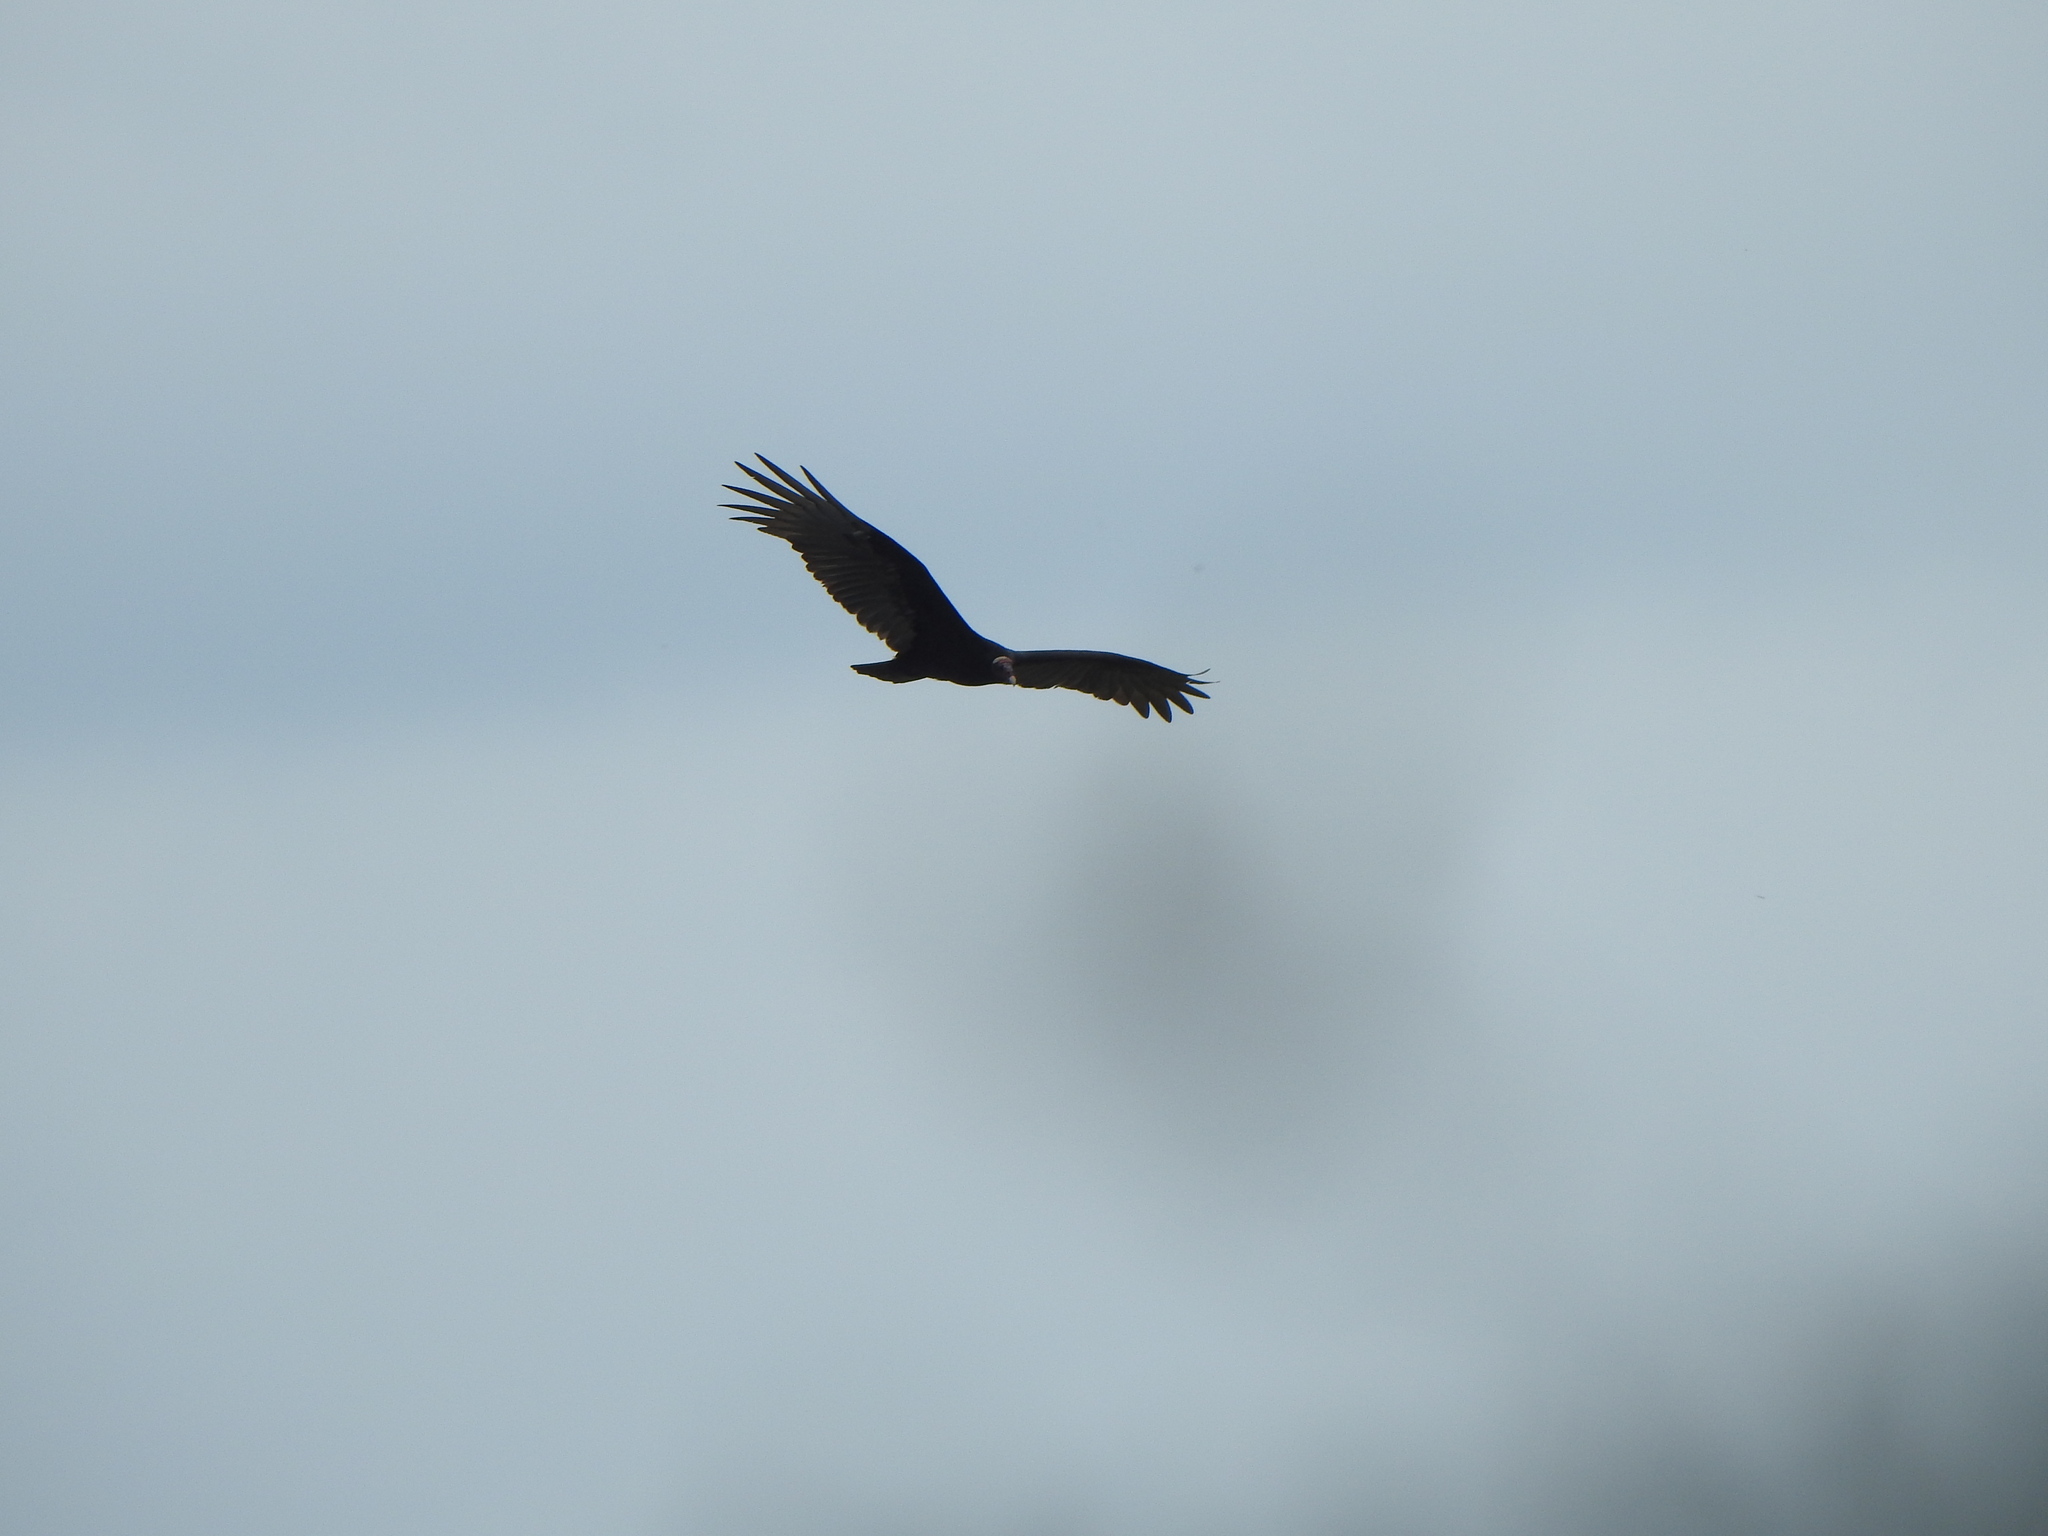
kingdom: Animalia
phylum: Chordata
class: Aves
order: Accipitriformes
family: Cathartidae
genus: Cathartes
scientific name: Cathartes aura
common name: Turkey vulture
